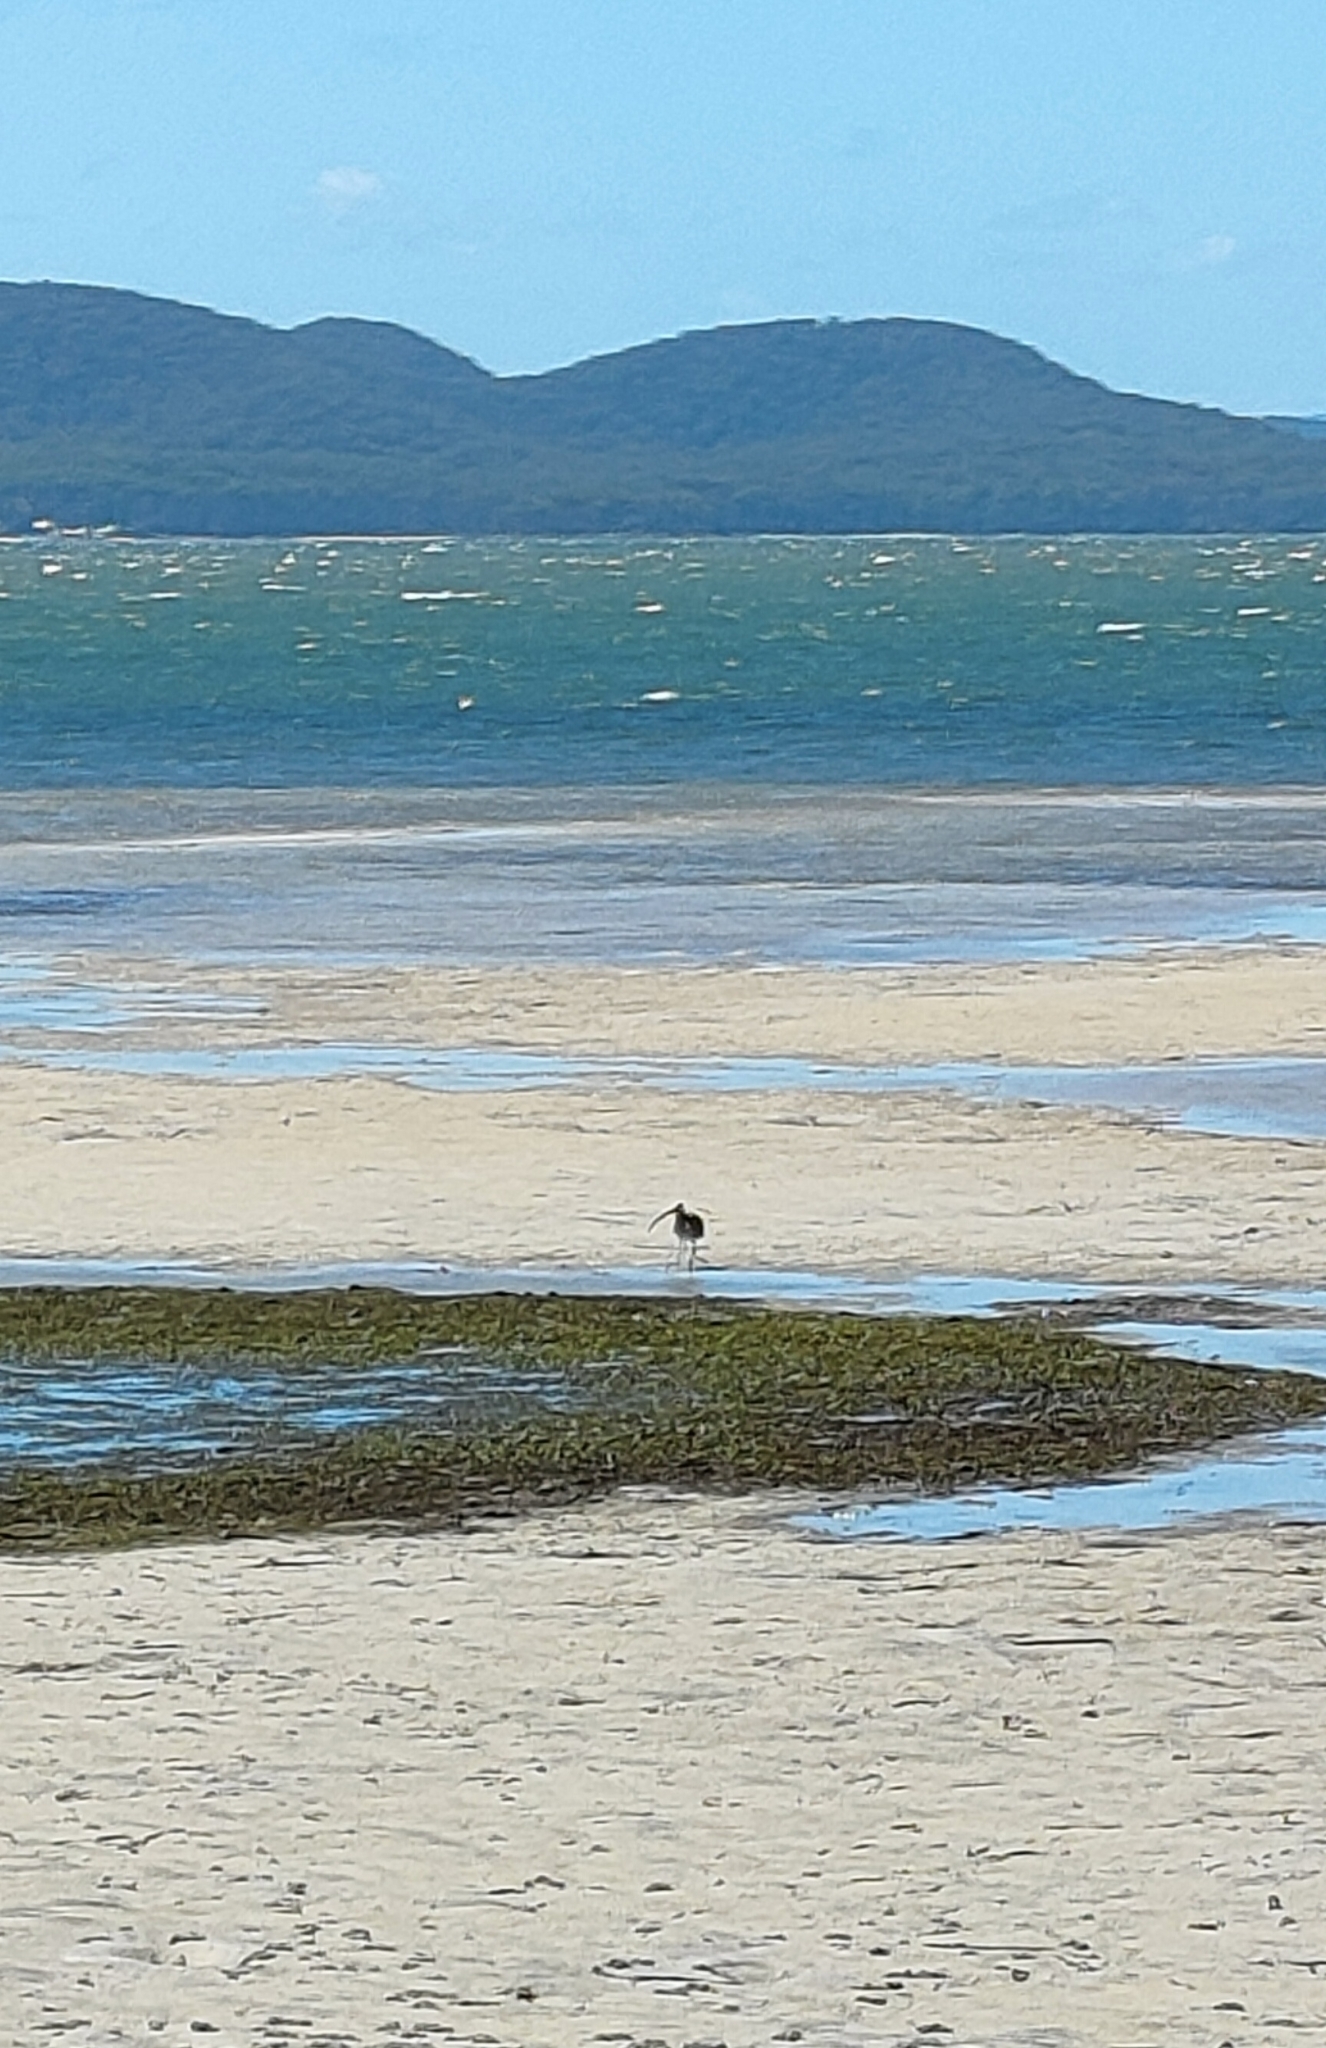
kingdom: Animalia
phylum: Chordata
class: Aves
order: Charadriiformes
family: Scolopacidae
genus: Numenius
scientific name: Numenius madagascariensis
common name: Far eastern curlew
